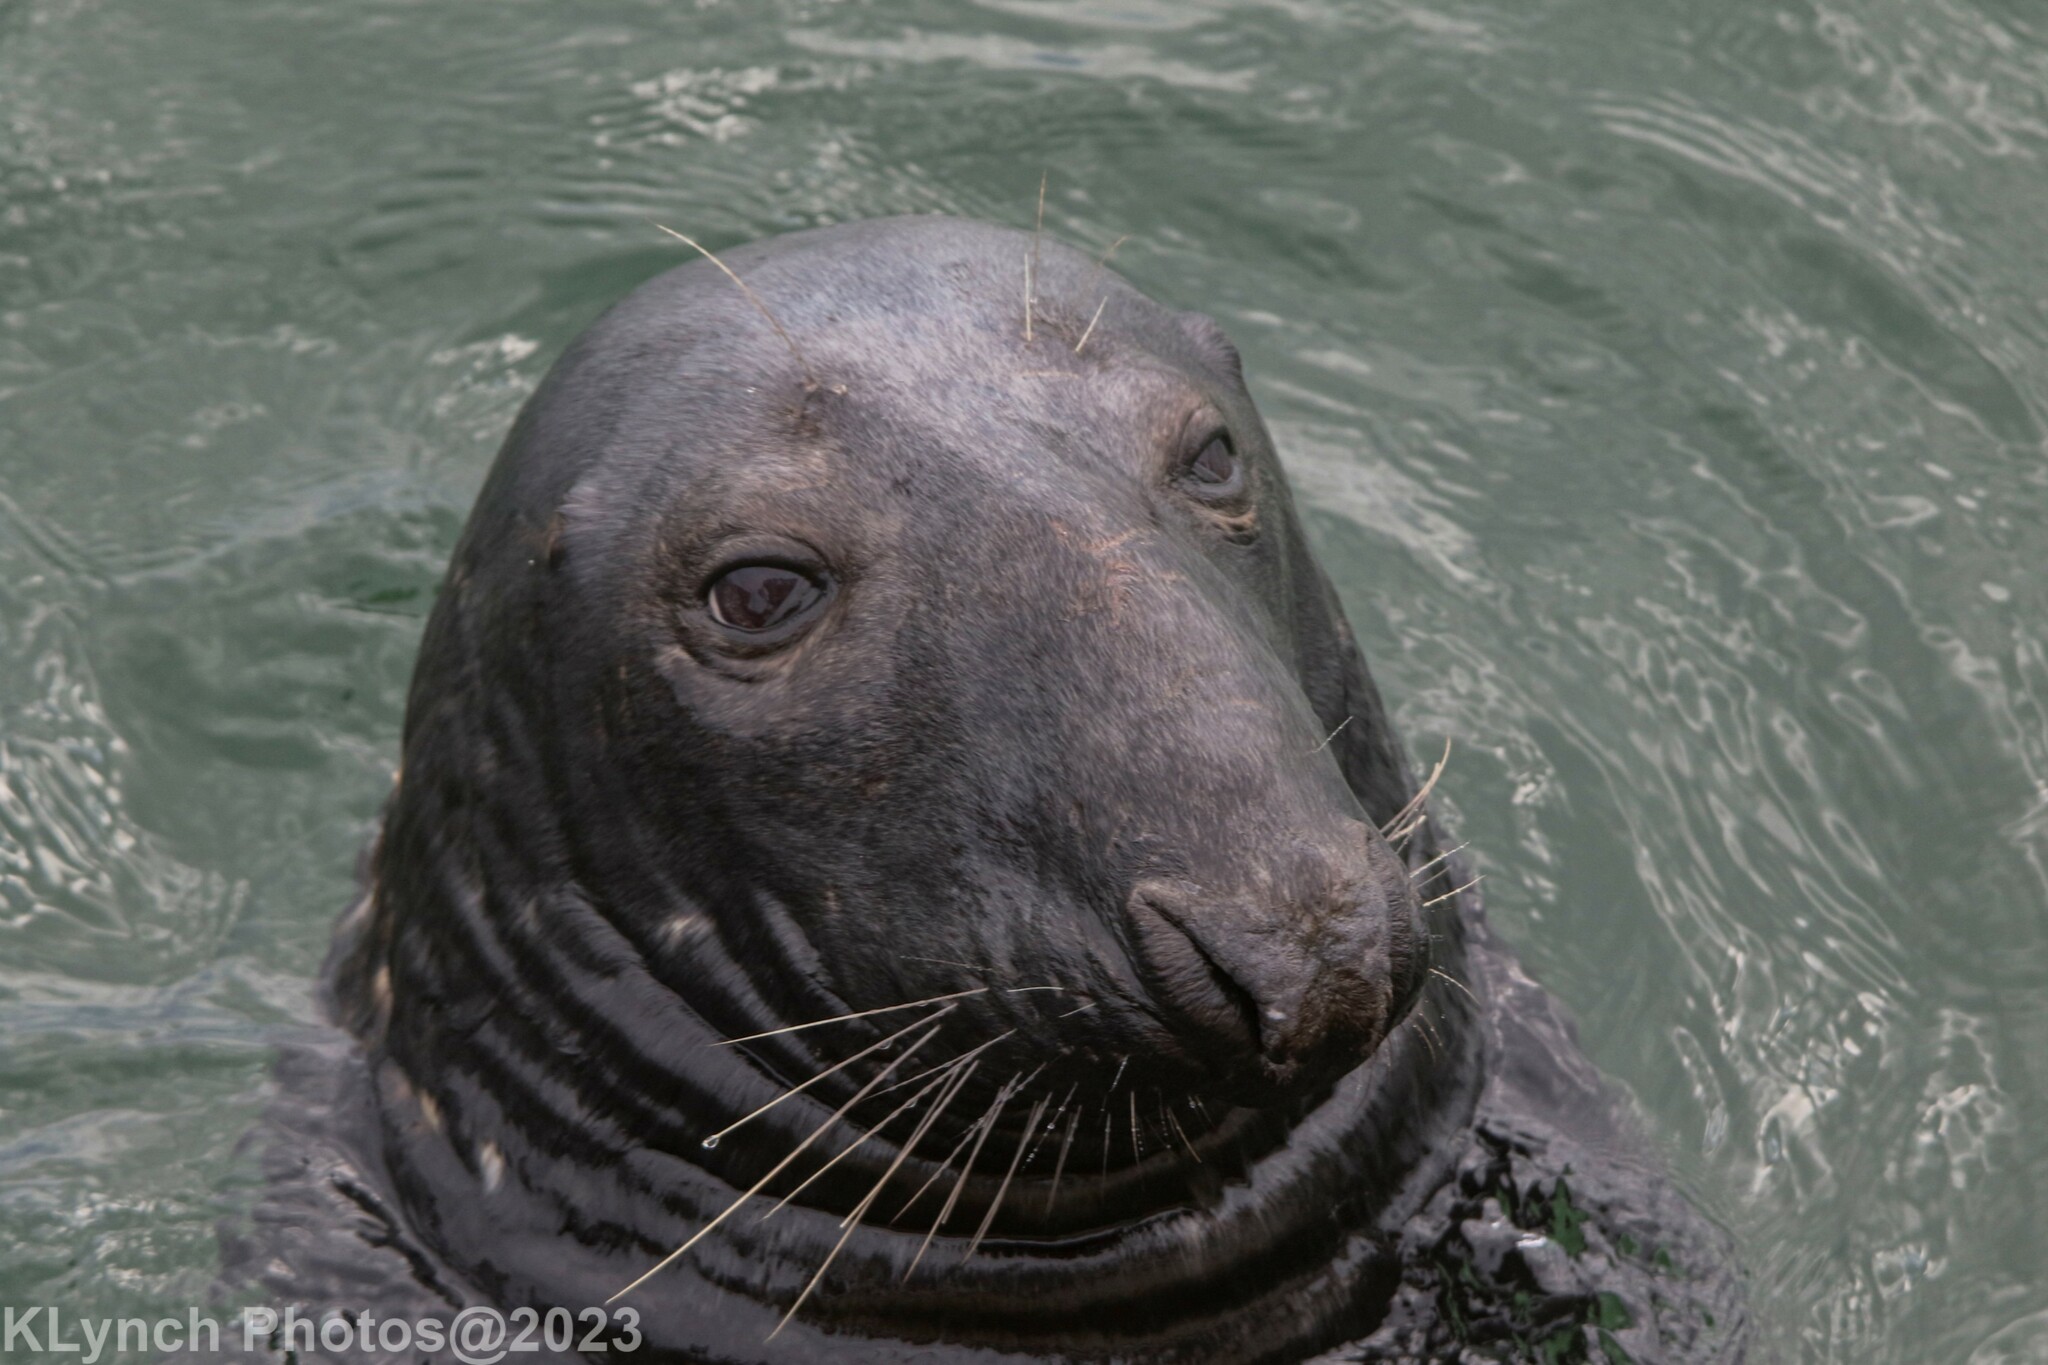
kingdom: Animalia
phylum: Chordata
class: Mammalia
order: Carnivora
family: Phocidae
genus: Halichoerus
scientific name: Halichoerus grypus
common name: Grey seal
